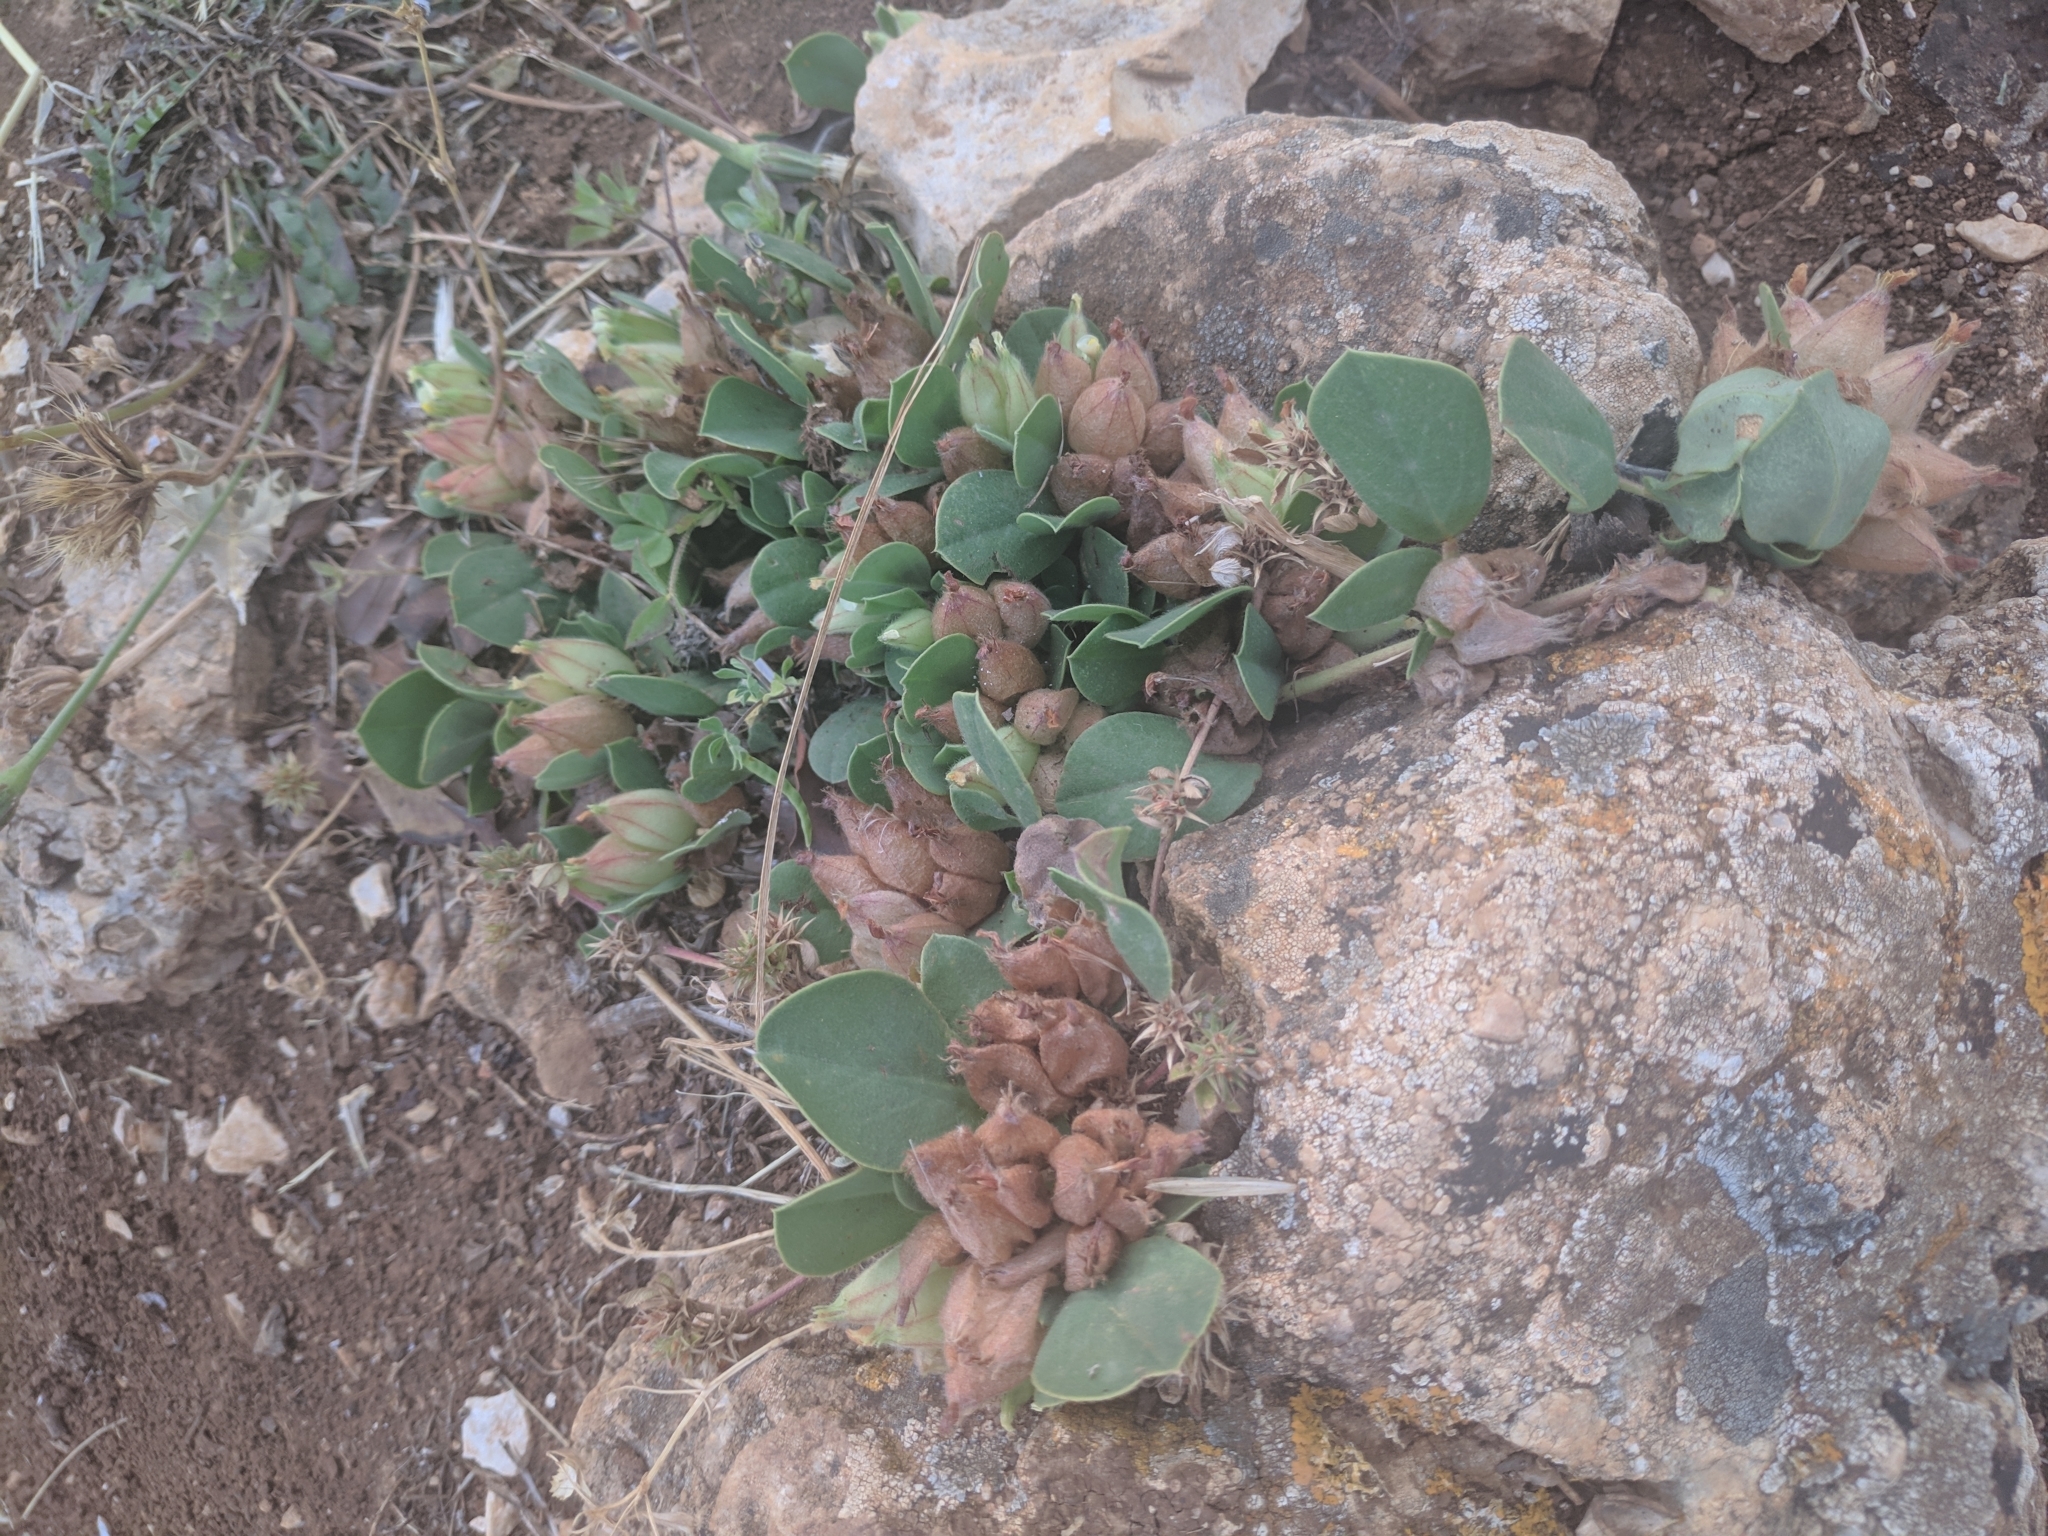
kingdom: Plantae
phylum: Tracheophyta
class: Magnoliopsida
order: Fabales
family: Fabaceae
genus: Tripodion
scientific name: Tripodion tetraphyllum
